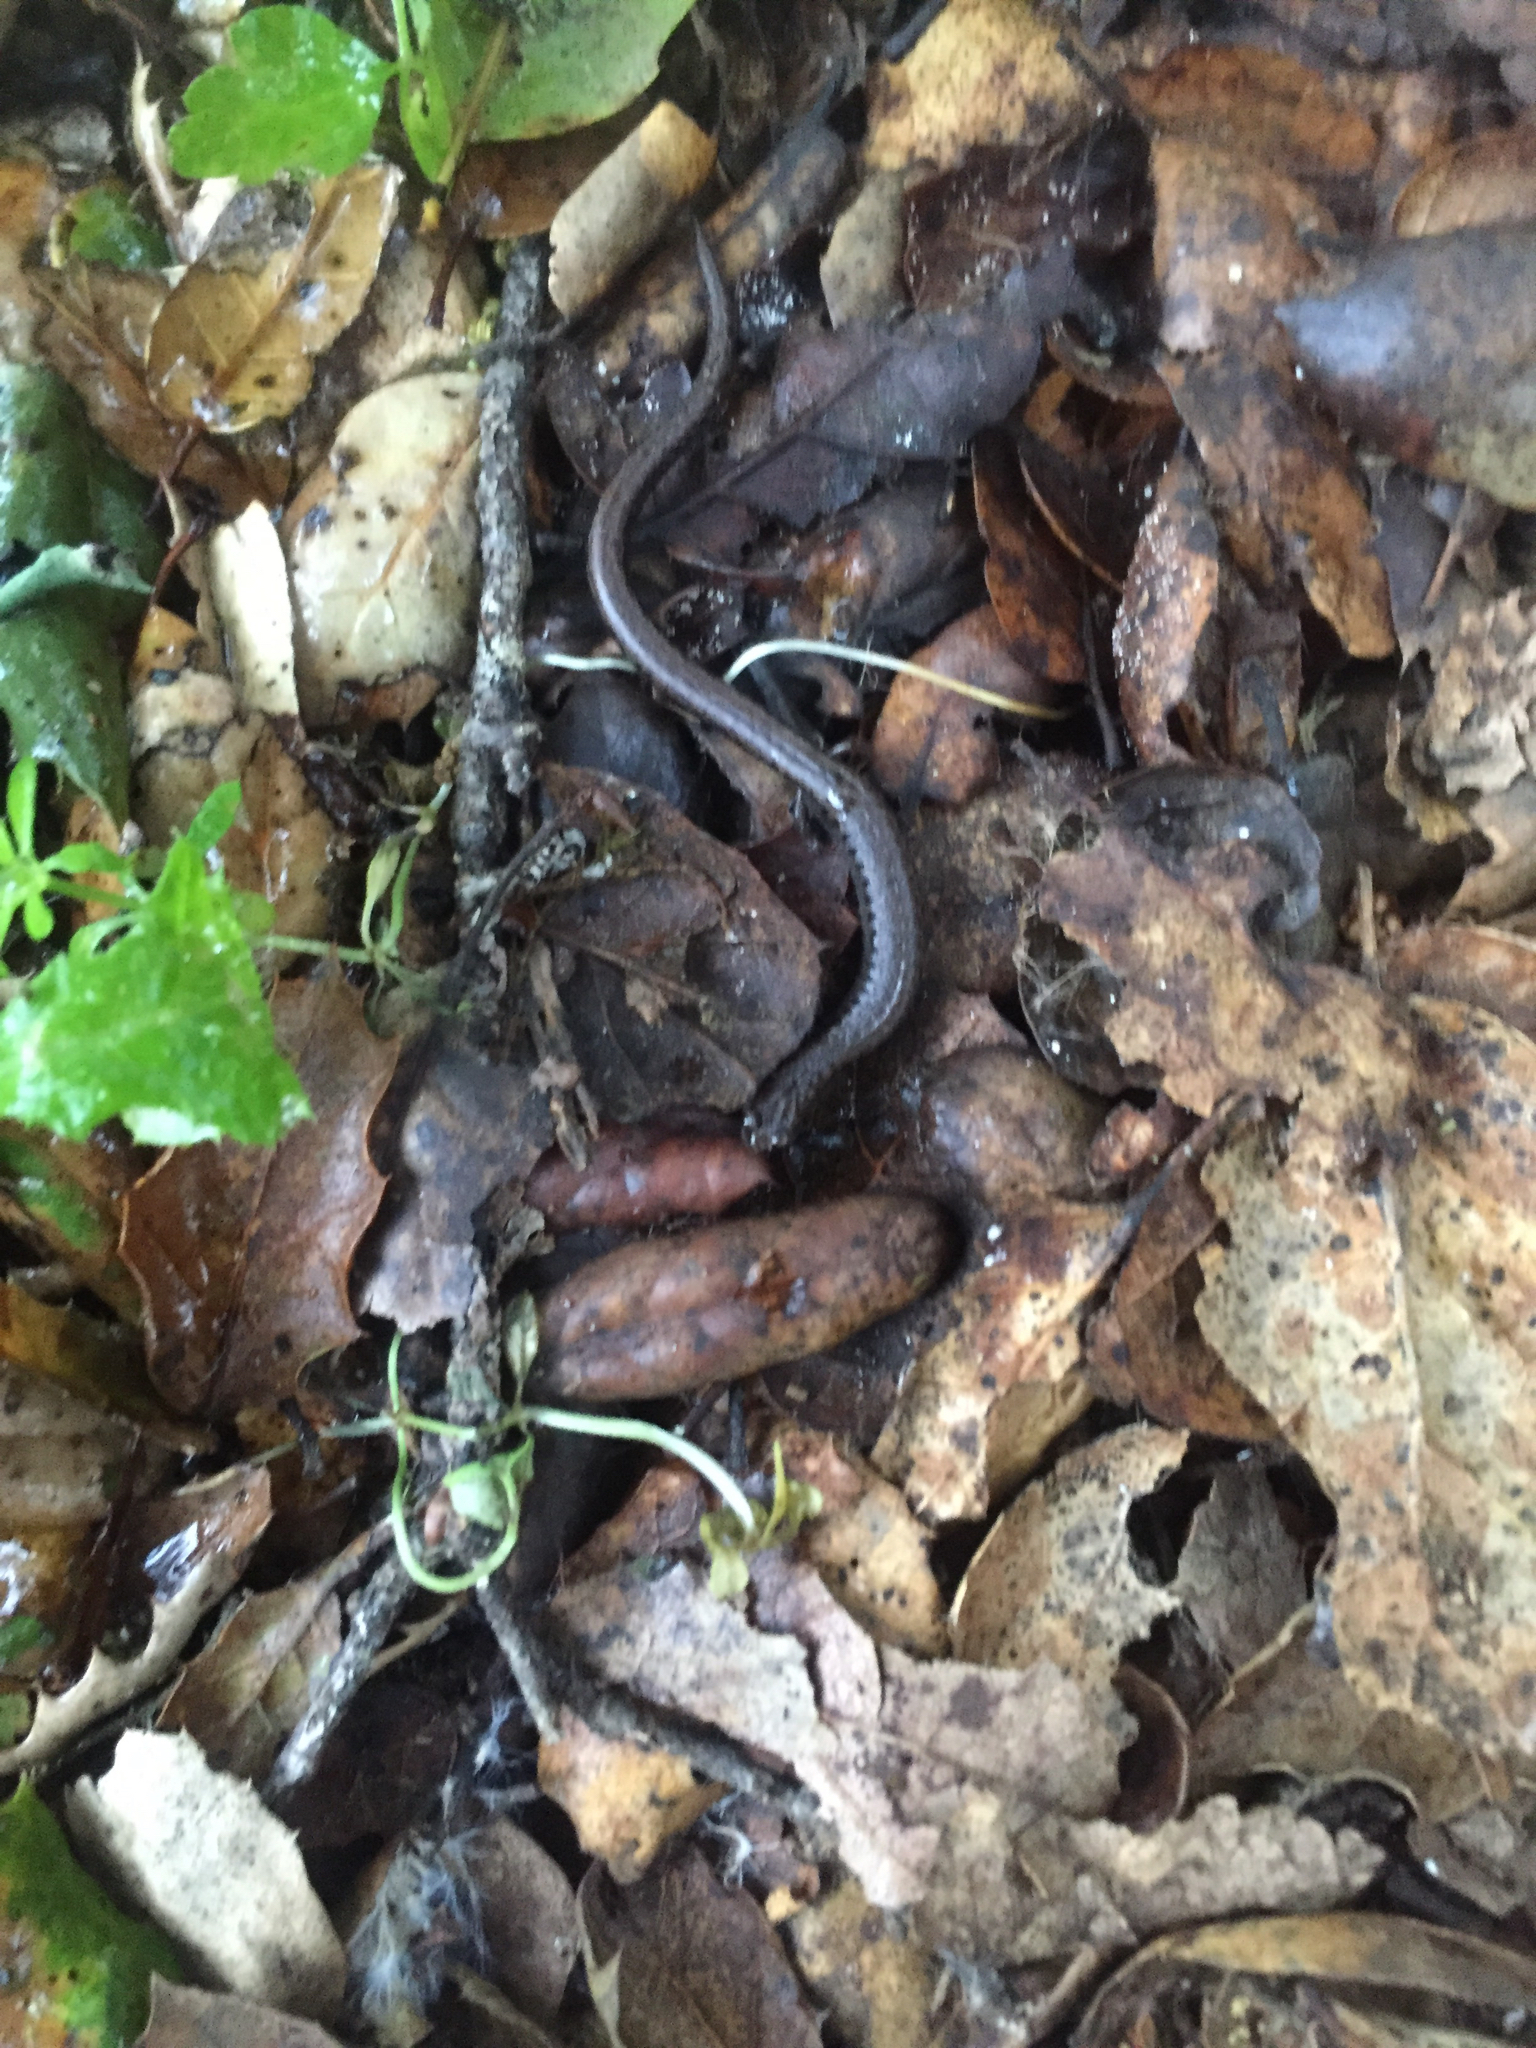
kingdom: Animalia
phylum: Chordata
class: Amphibia
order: Caudata
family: Plethodontidae
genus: Batrachoseps
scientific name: Batrachoseps attenuatus
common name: California slender salamander
